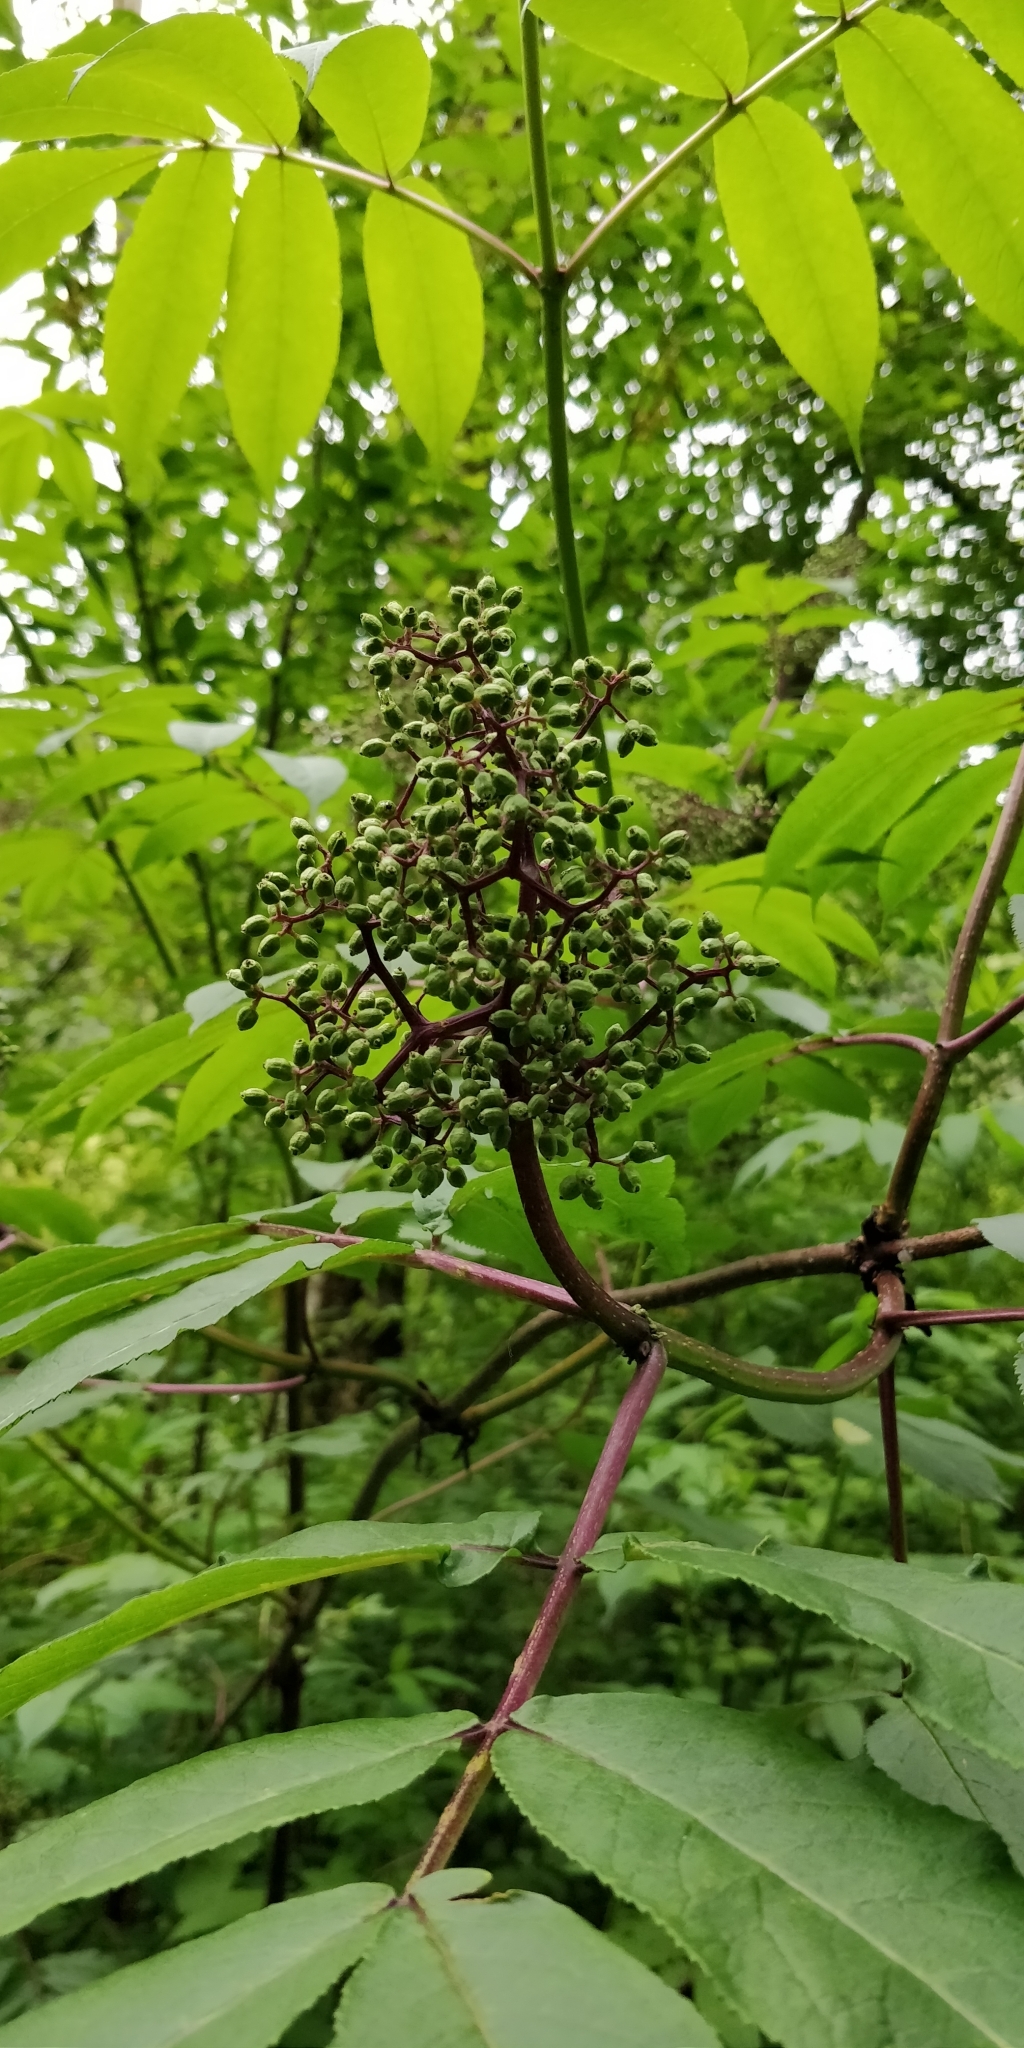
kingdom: Plantae
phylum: Tracheophyta
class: Magnoliopsida
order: Dipsacales
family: Viburnaceae
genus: Sambucus
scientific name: Sambucus racemosa
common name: Red-berried elder
